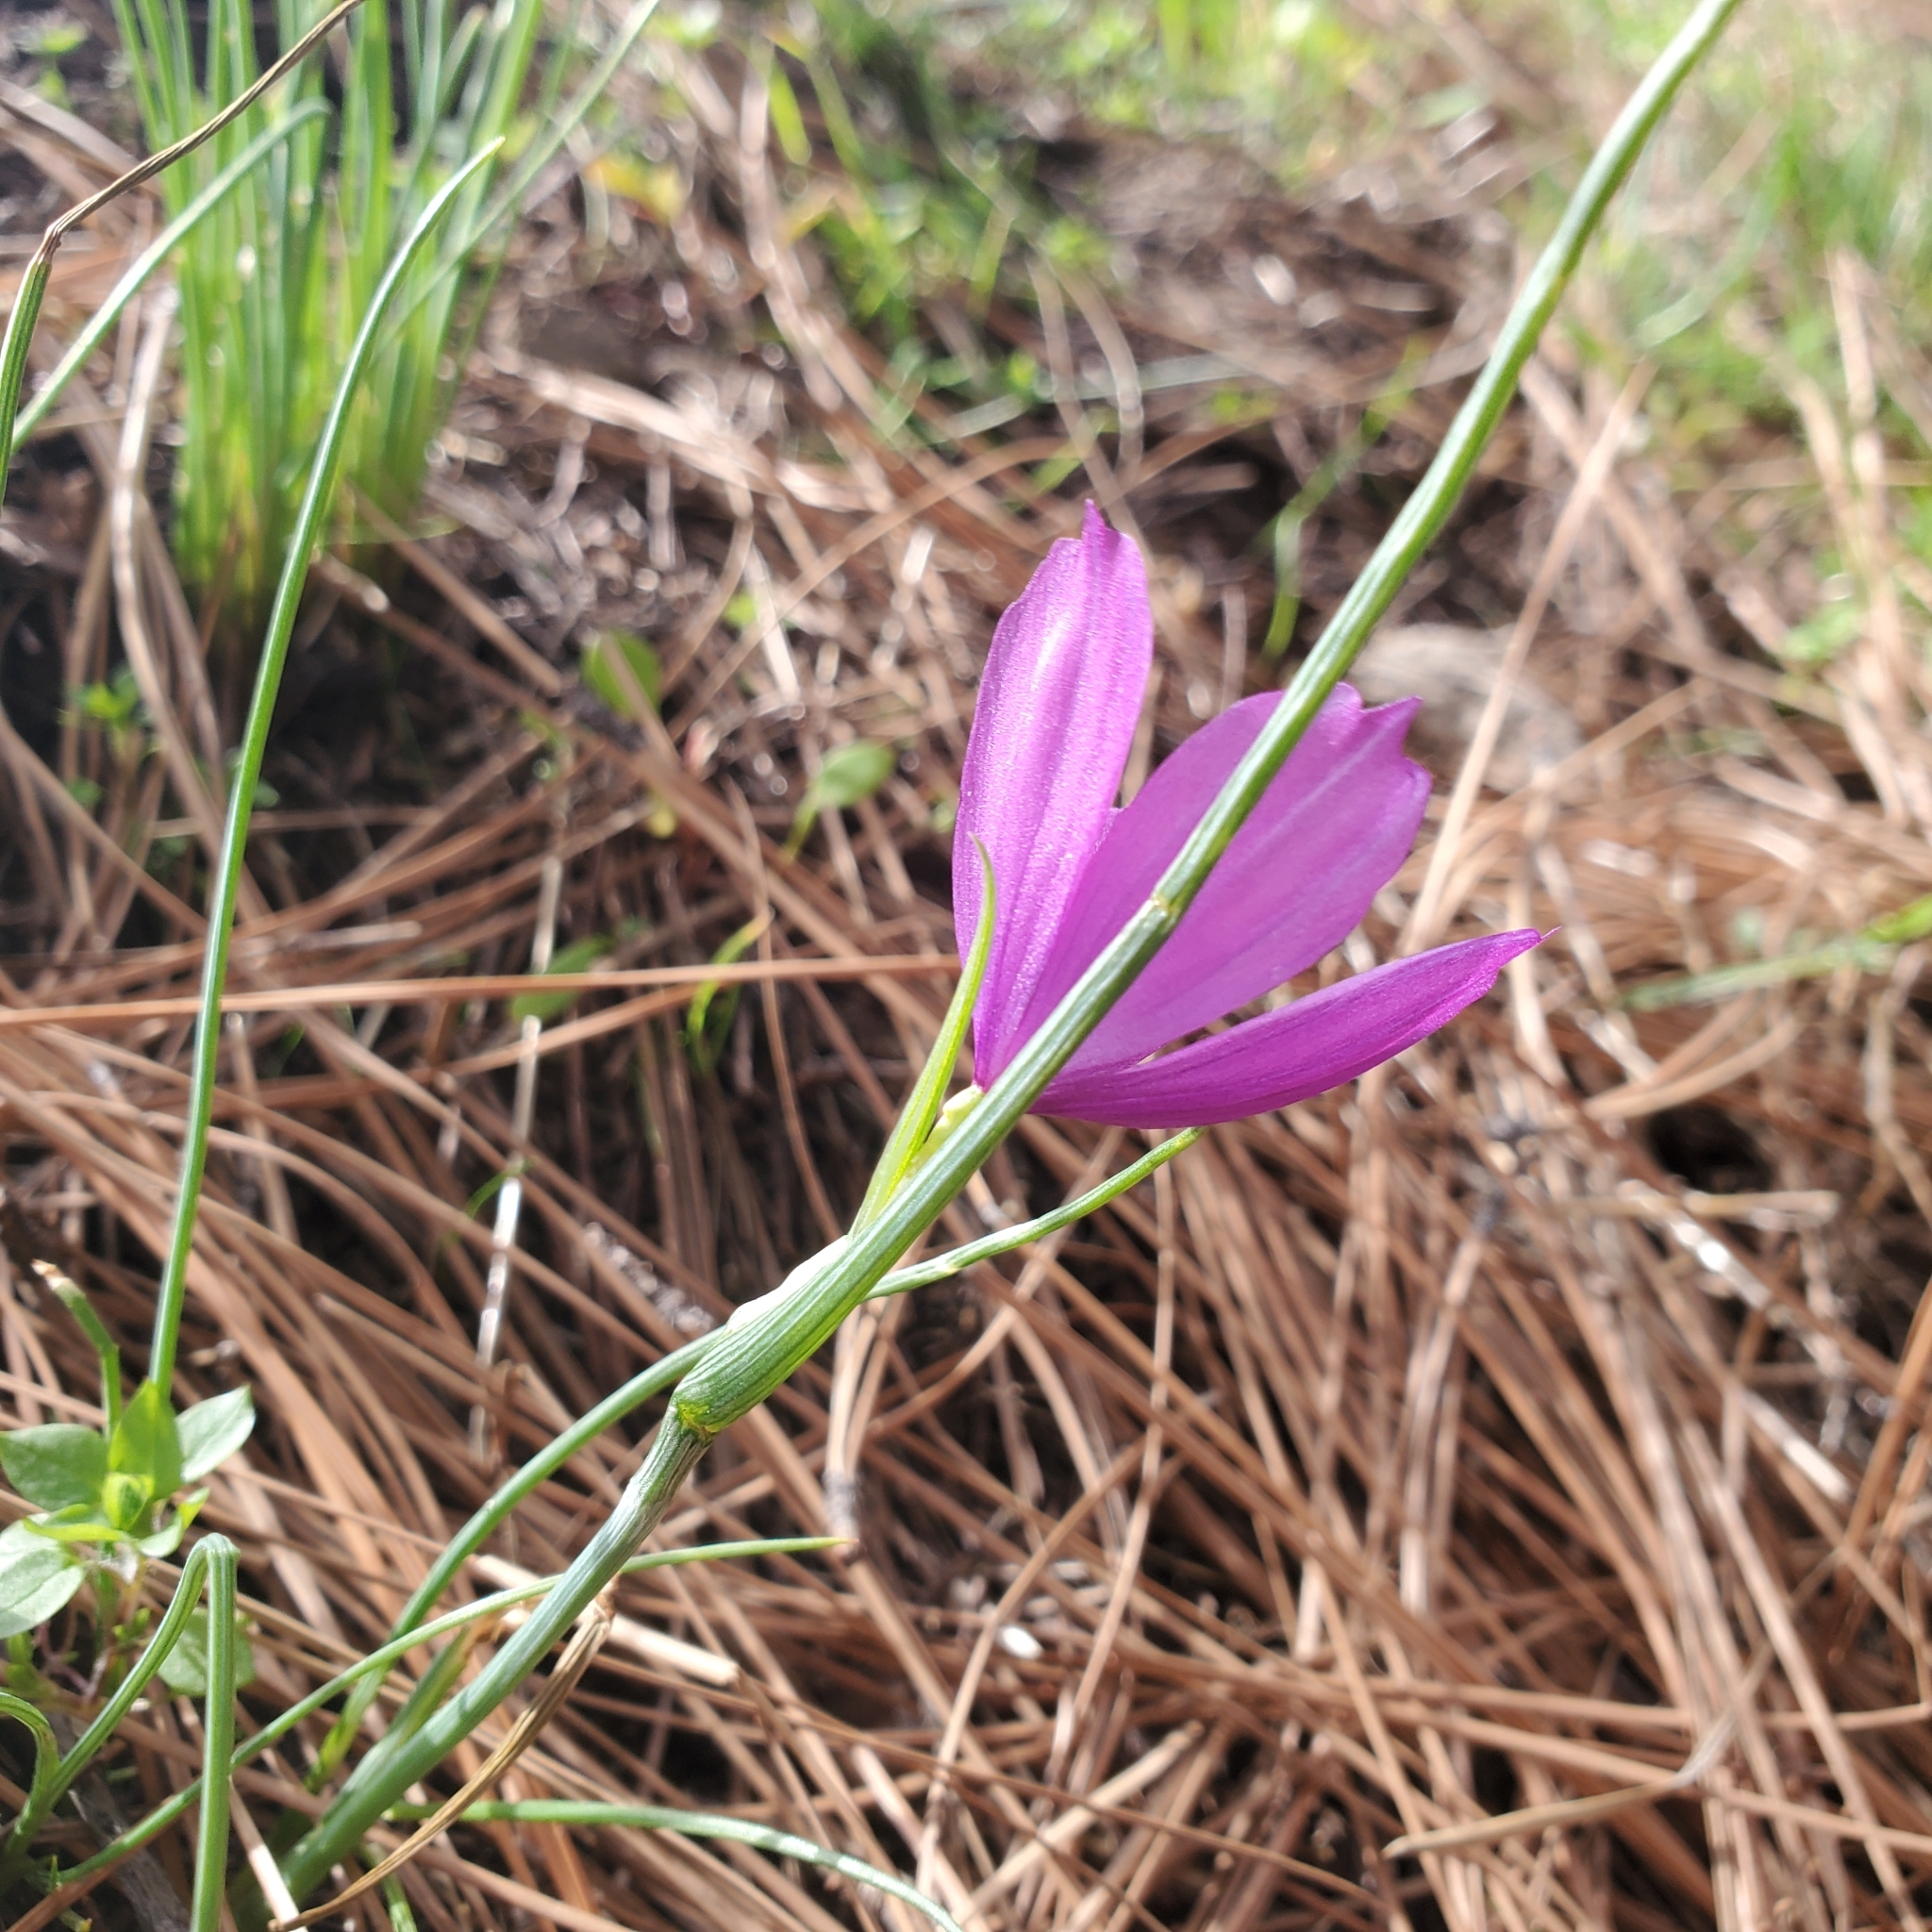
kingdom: Plantae
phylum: Tracheophyta
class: Liliopsida
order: Asparagales
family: Iridaceae
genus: Olsynium
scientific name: Olsynium douglasii
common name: Douglas' grasswidow
